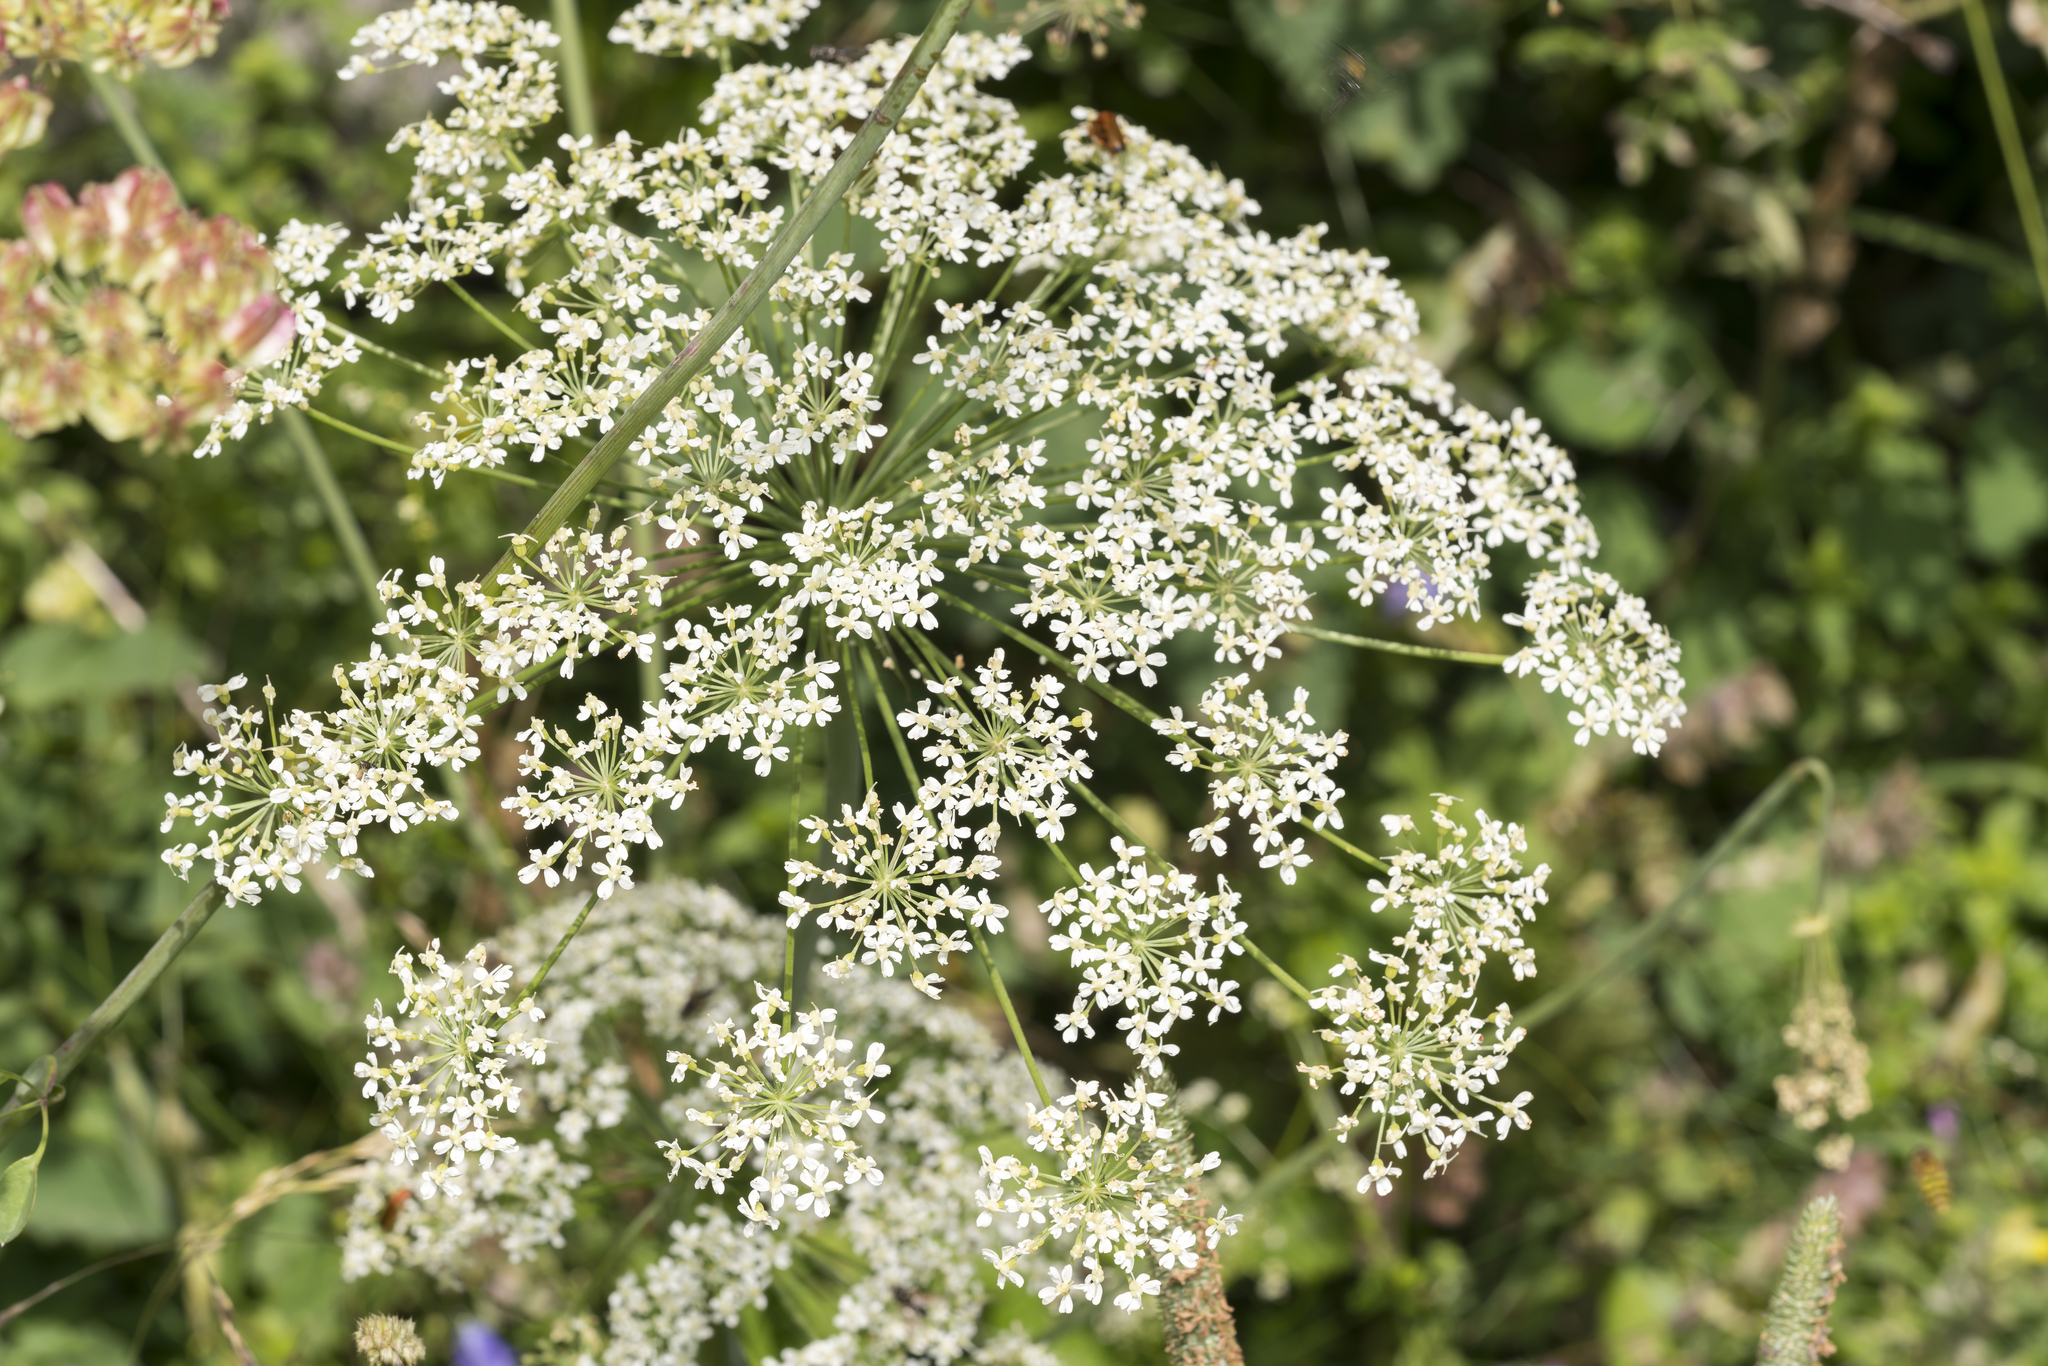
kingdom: Plantae
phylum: Tracheophyta
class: Magnoliopsida
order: Apiales
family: Apiaceae
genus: Laserpitium
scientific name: Laserpitium latifolium
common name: Broadleaf sermountain
